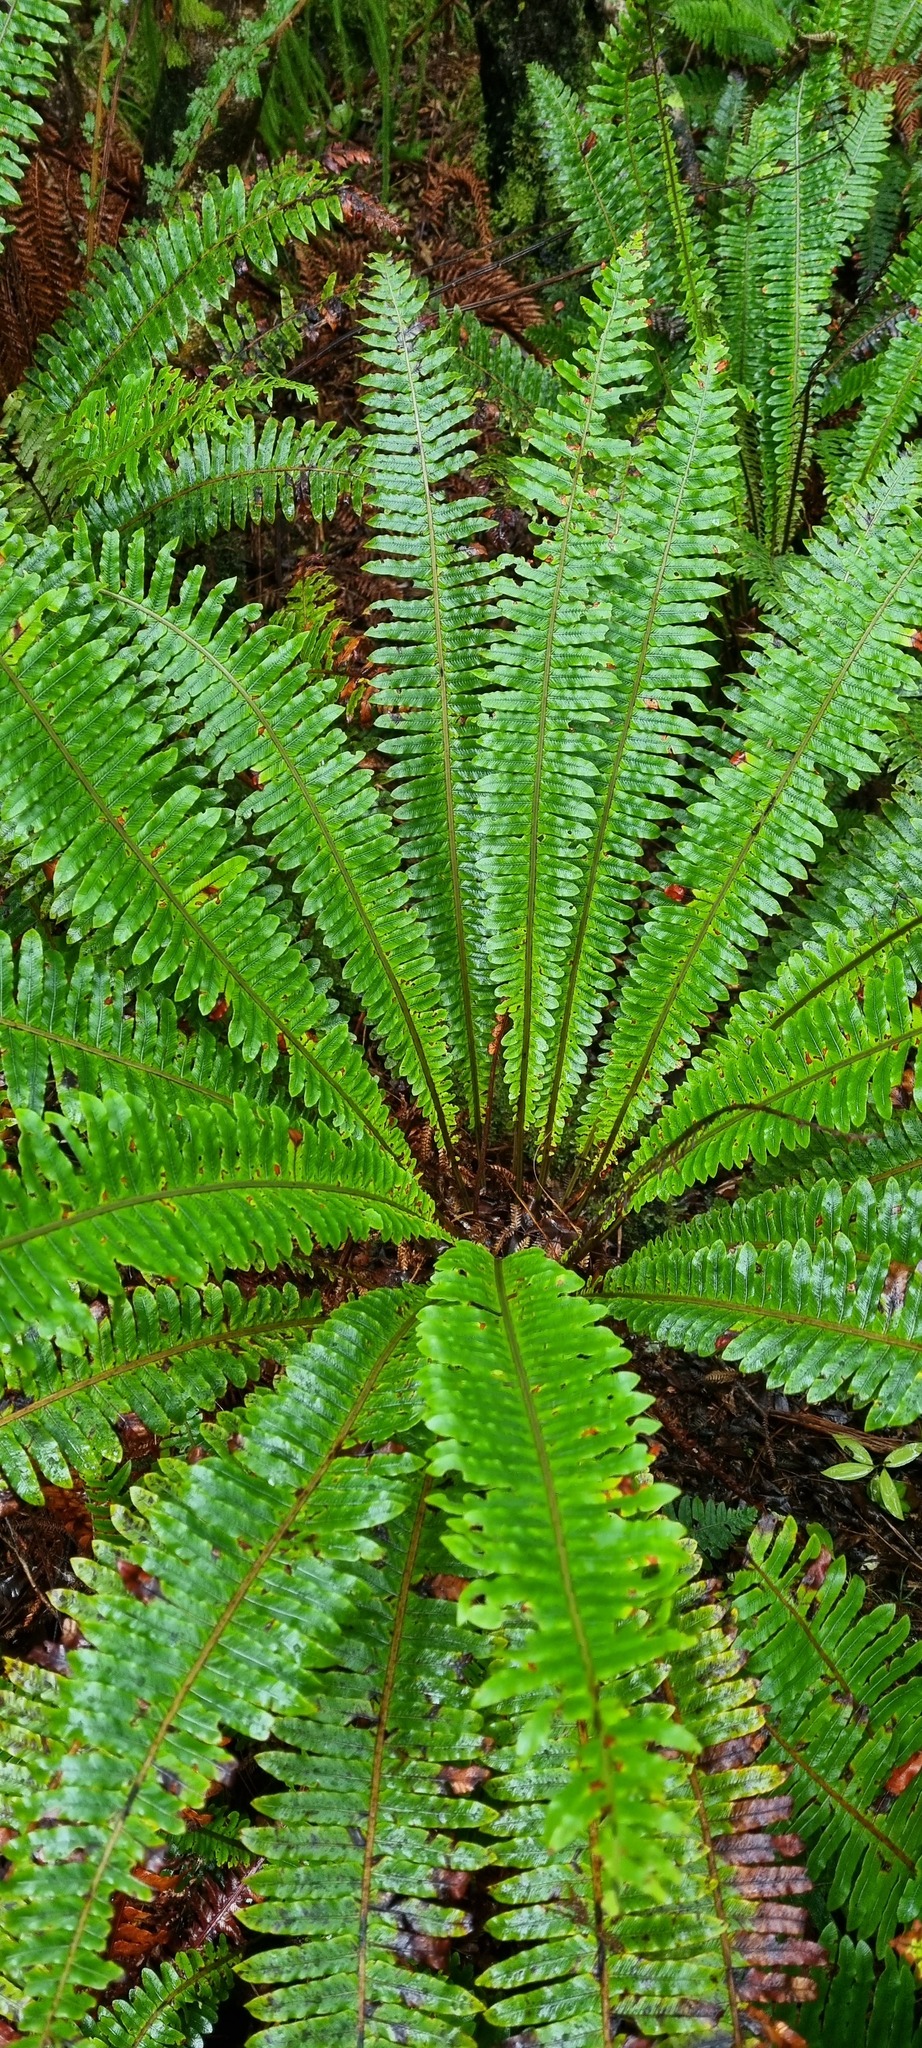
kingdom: Plantae
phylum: Tracheophyta
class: Polypodiopsida
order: Polypodiales
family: Blechnaceae
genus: Lomaria
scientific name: Lomaria discolor
